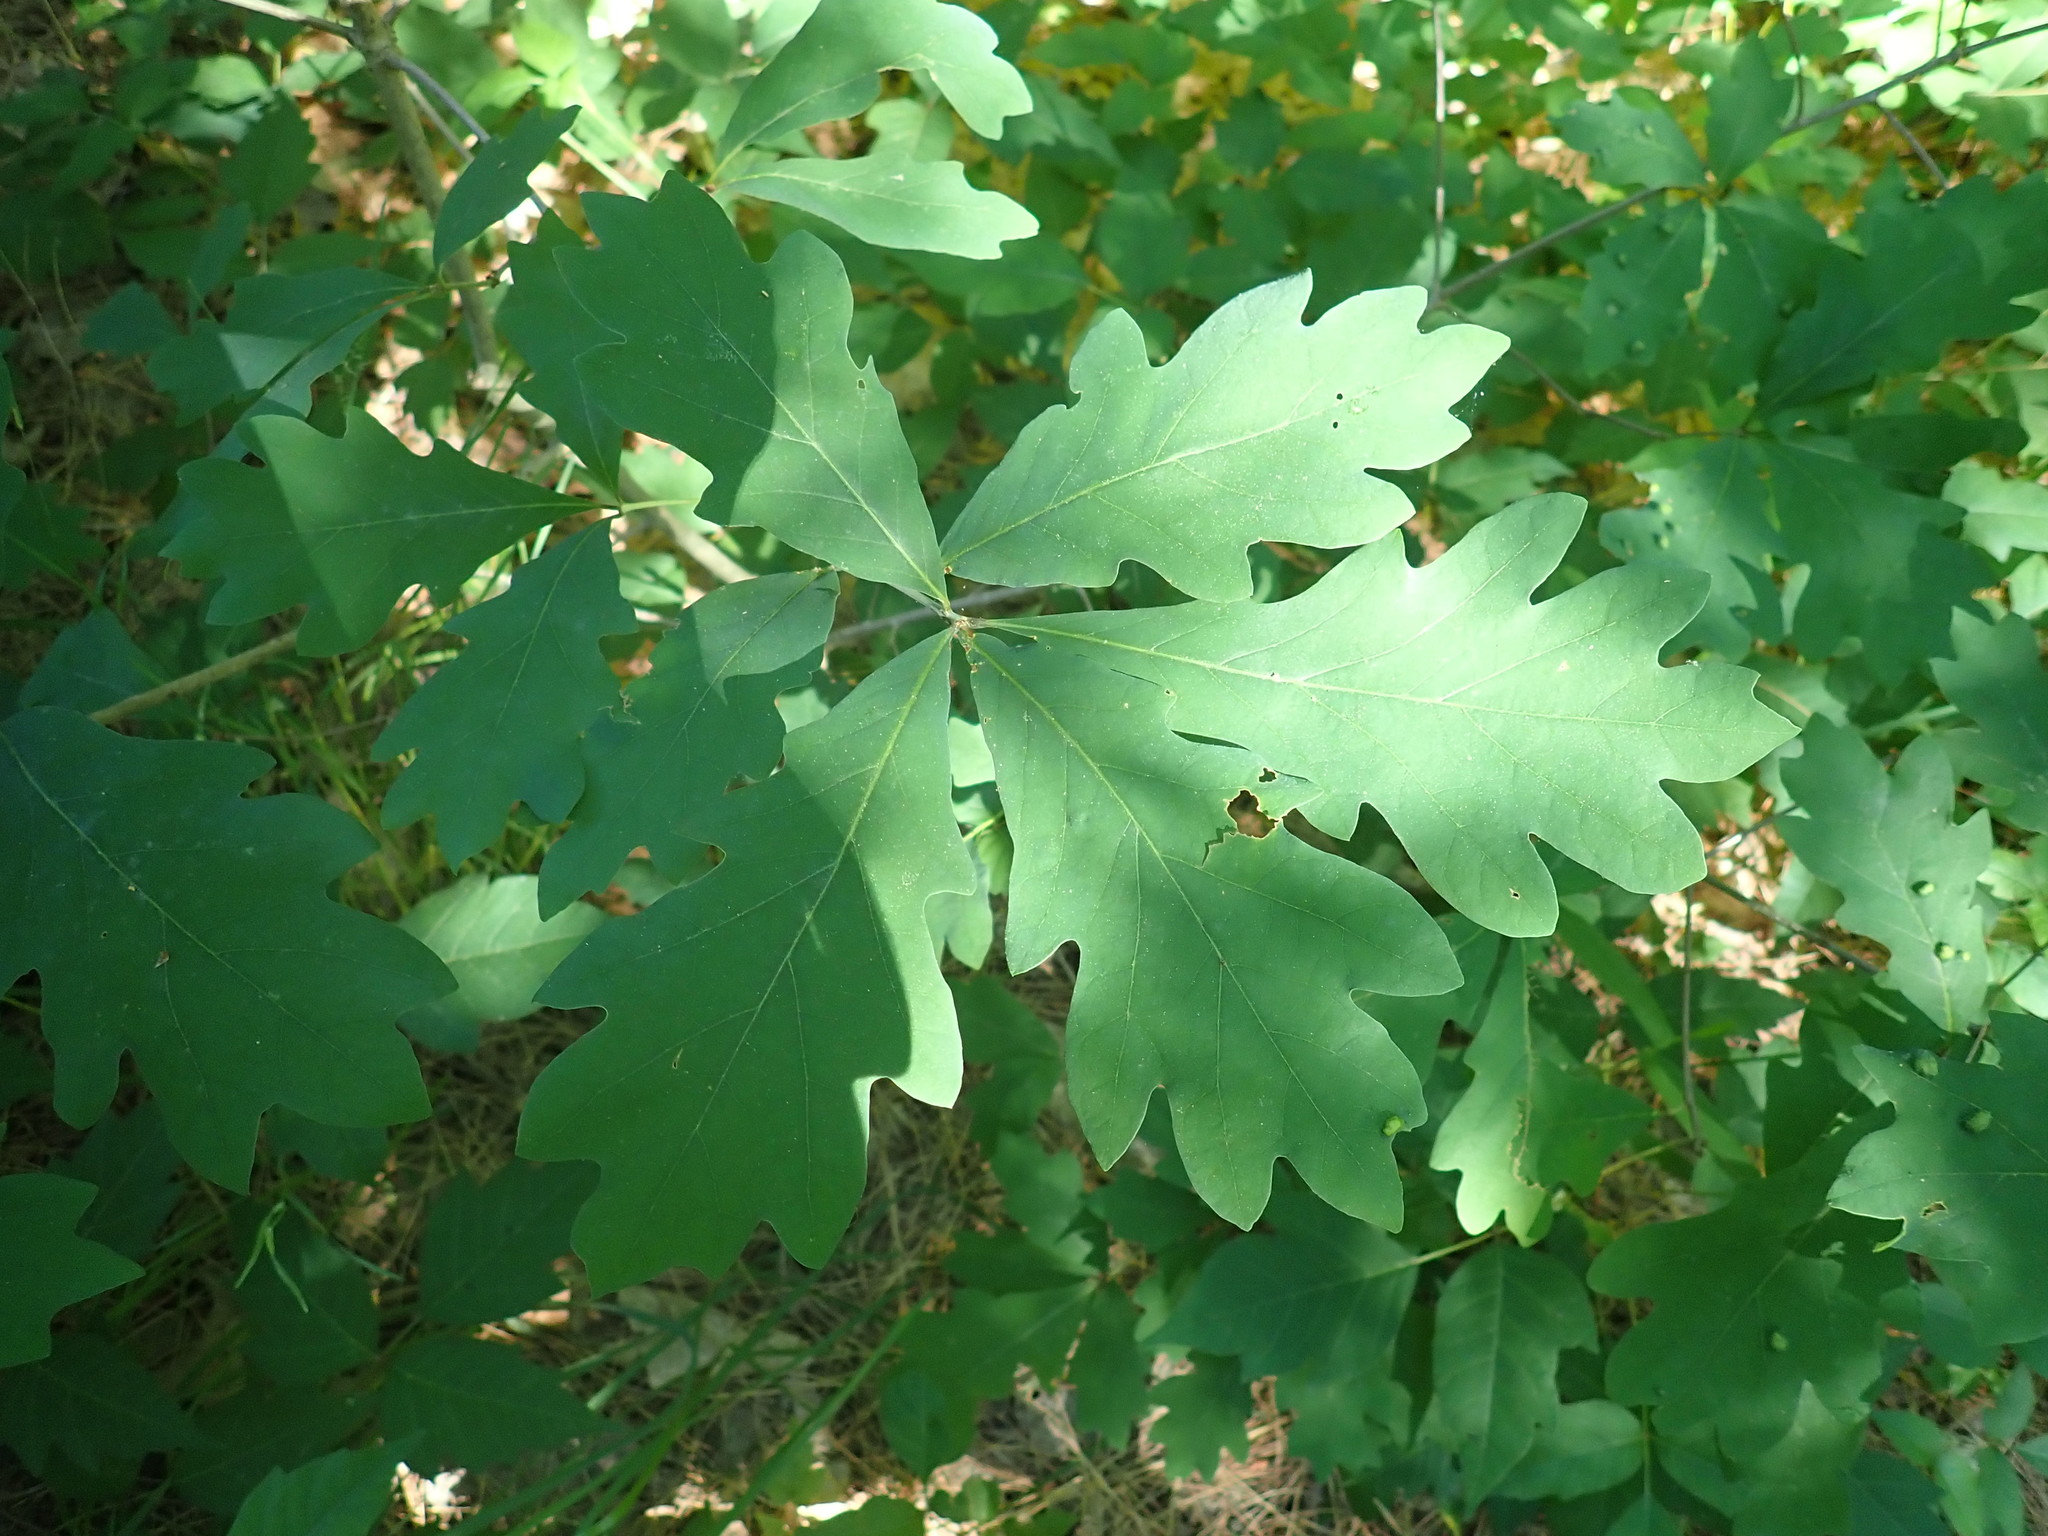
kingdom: Plantae
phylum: Tracheophyta
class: Magnoliopsida
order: Fagales
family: Fagaceae
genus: Quercus
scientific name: Quercus alba
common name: White oak
